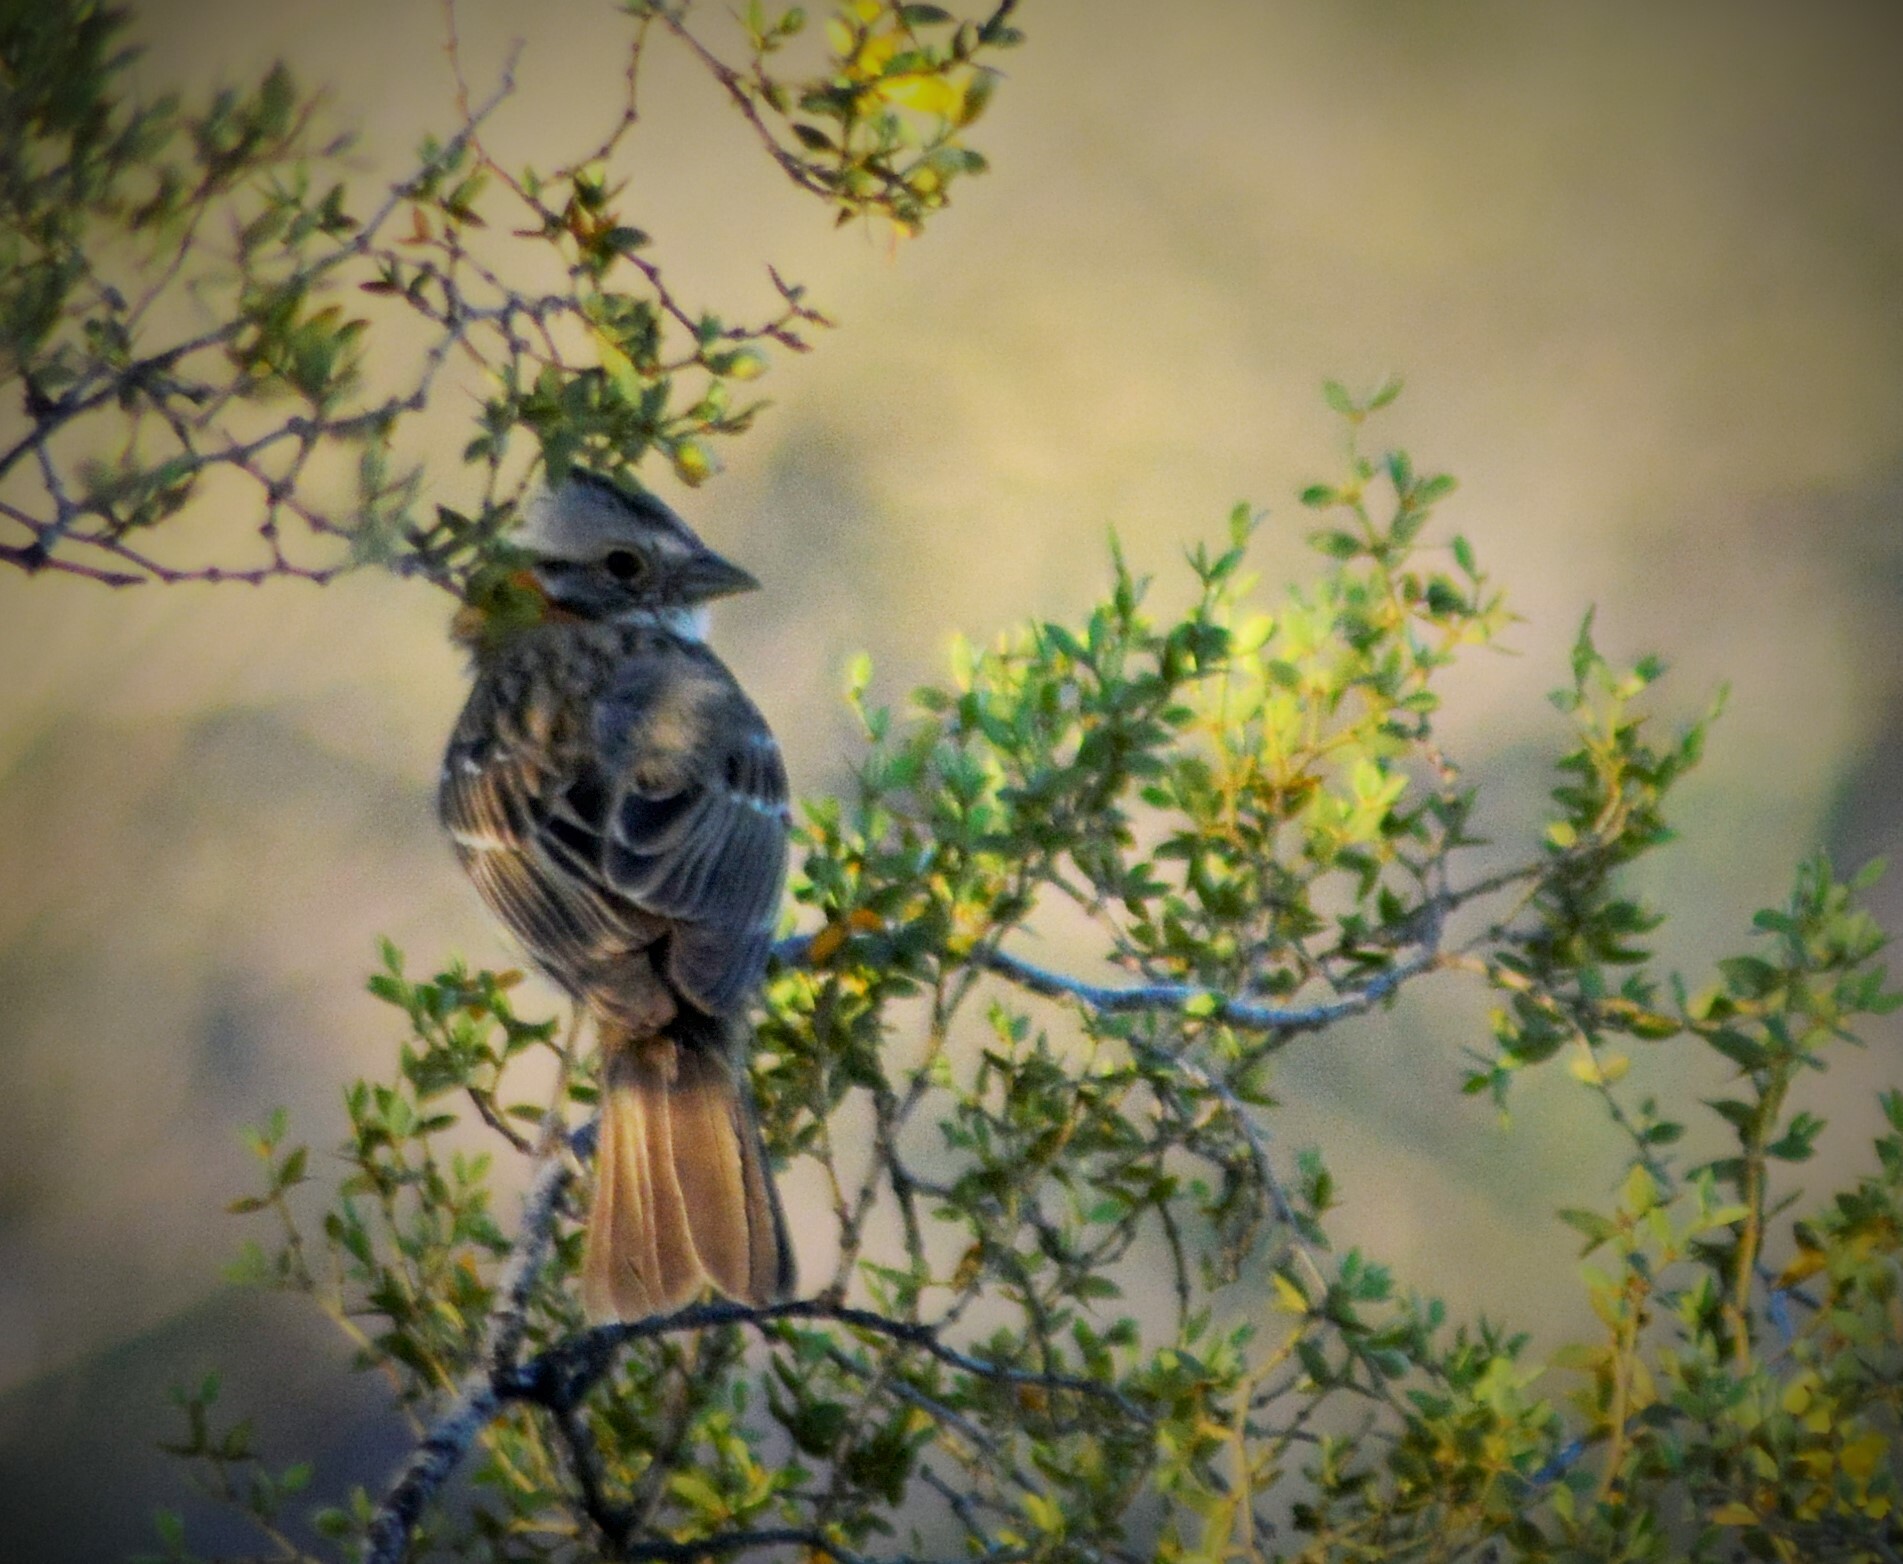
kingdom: Animalia
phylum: Chordata
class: Aves
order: Passeriformes
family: Passerellidae
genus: Zonotrichia
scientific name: Zonotrichia capensis
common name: Rufous-collared sparrow
